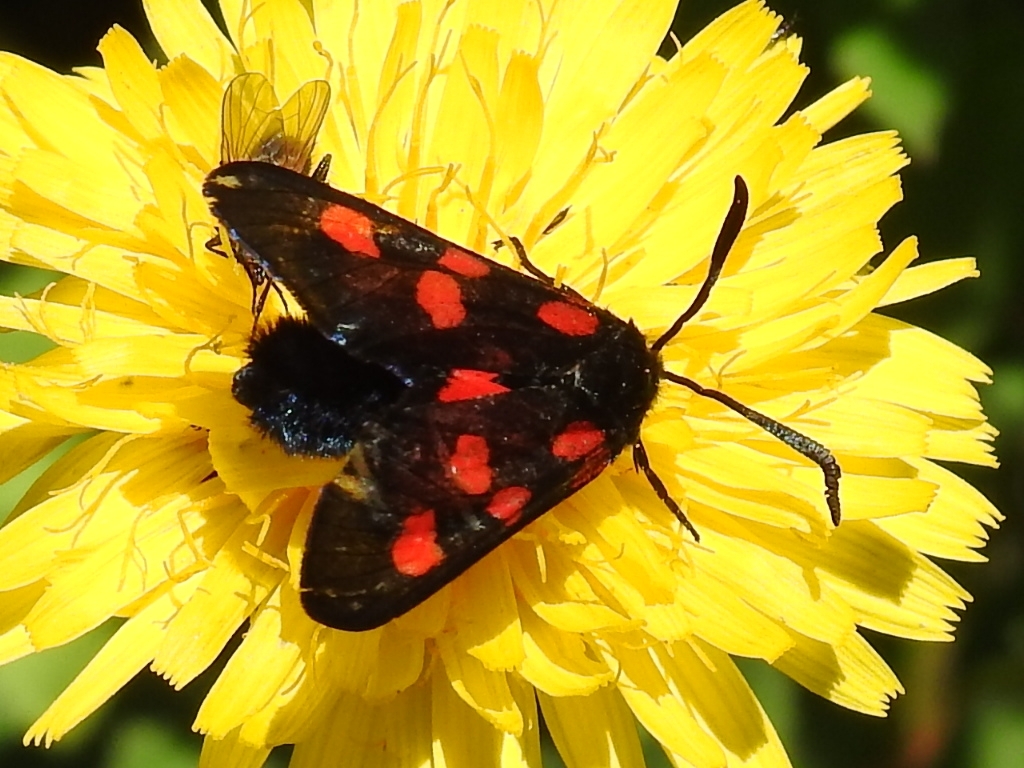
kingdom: Animalia
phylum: Arthropoda
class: Insecta
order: Lepidoptera
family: Zygaenidae
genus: Zygaena
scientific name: Zygaena lonicerae
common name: Narrow-bordered five-spot burnet
